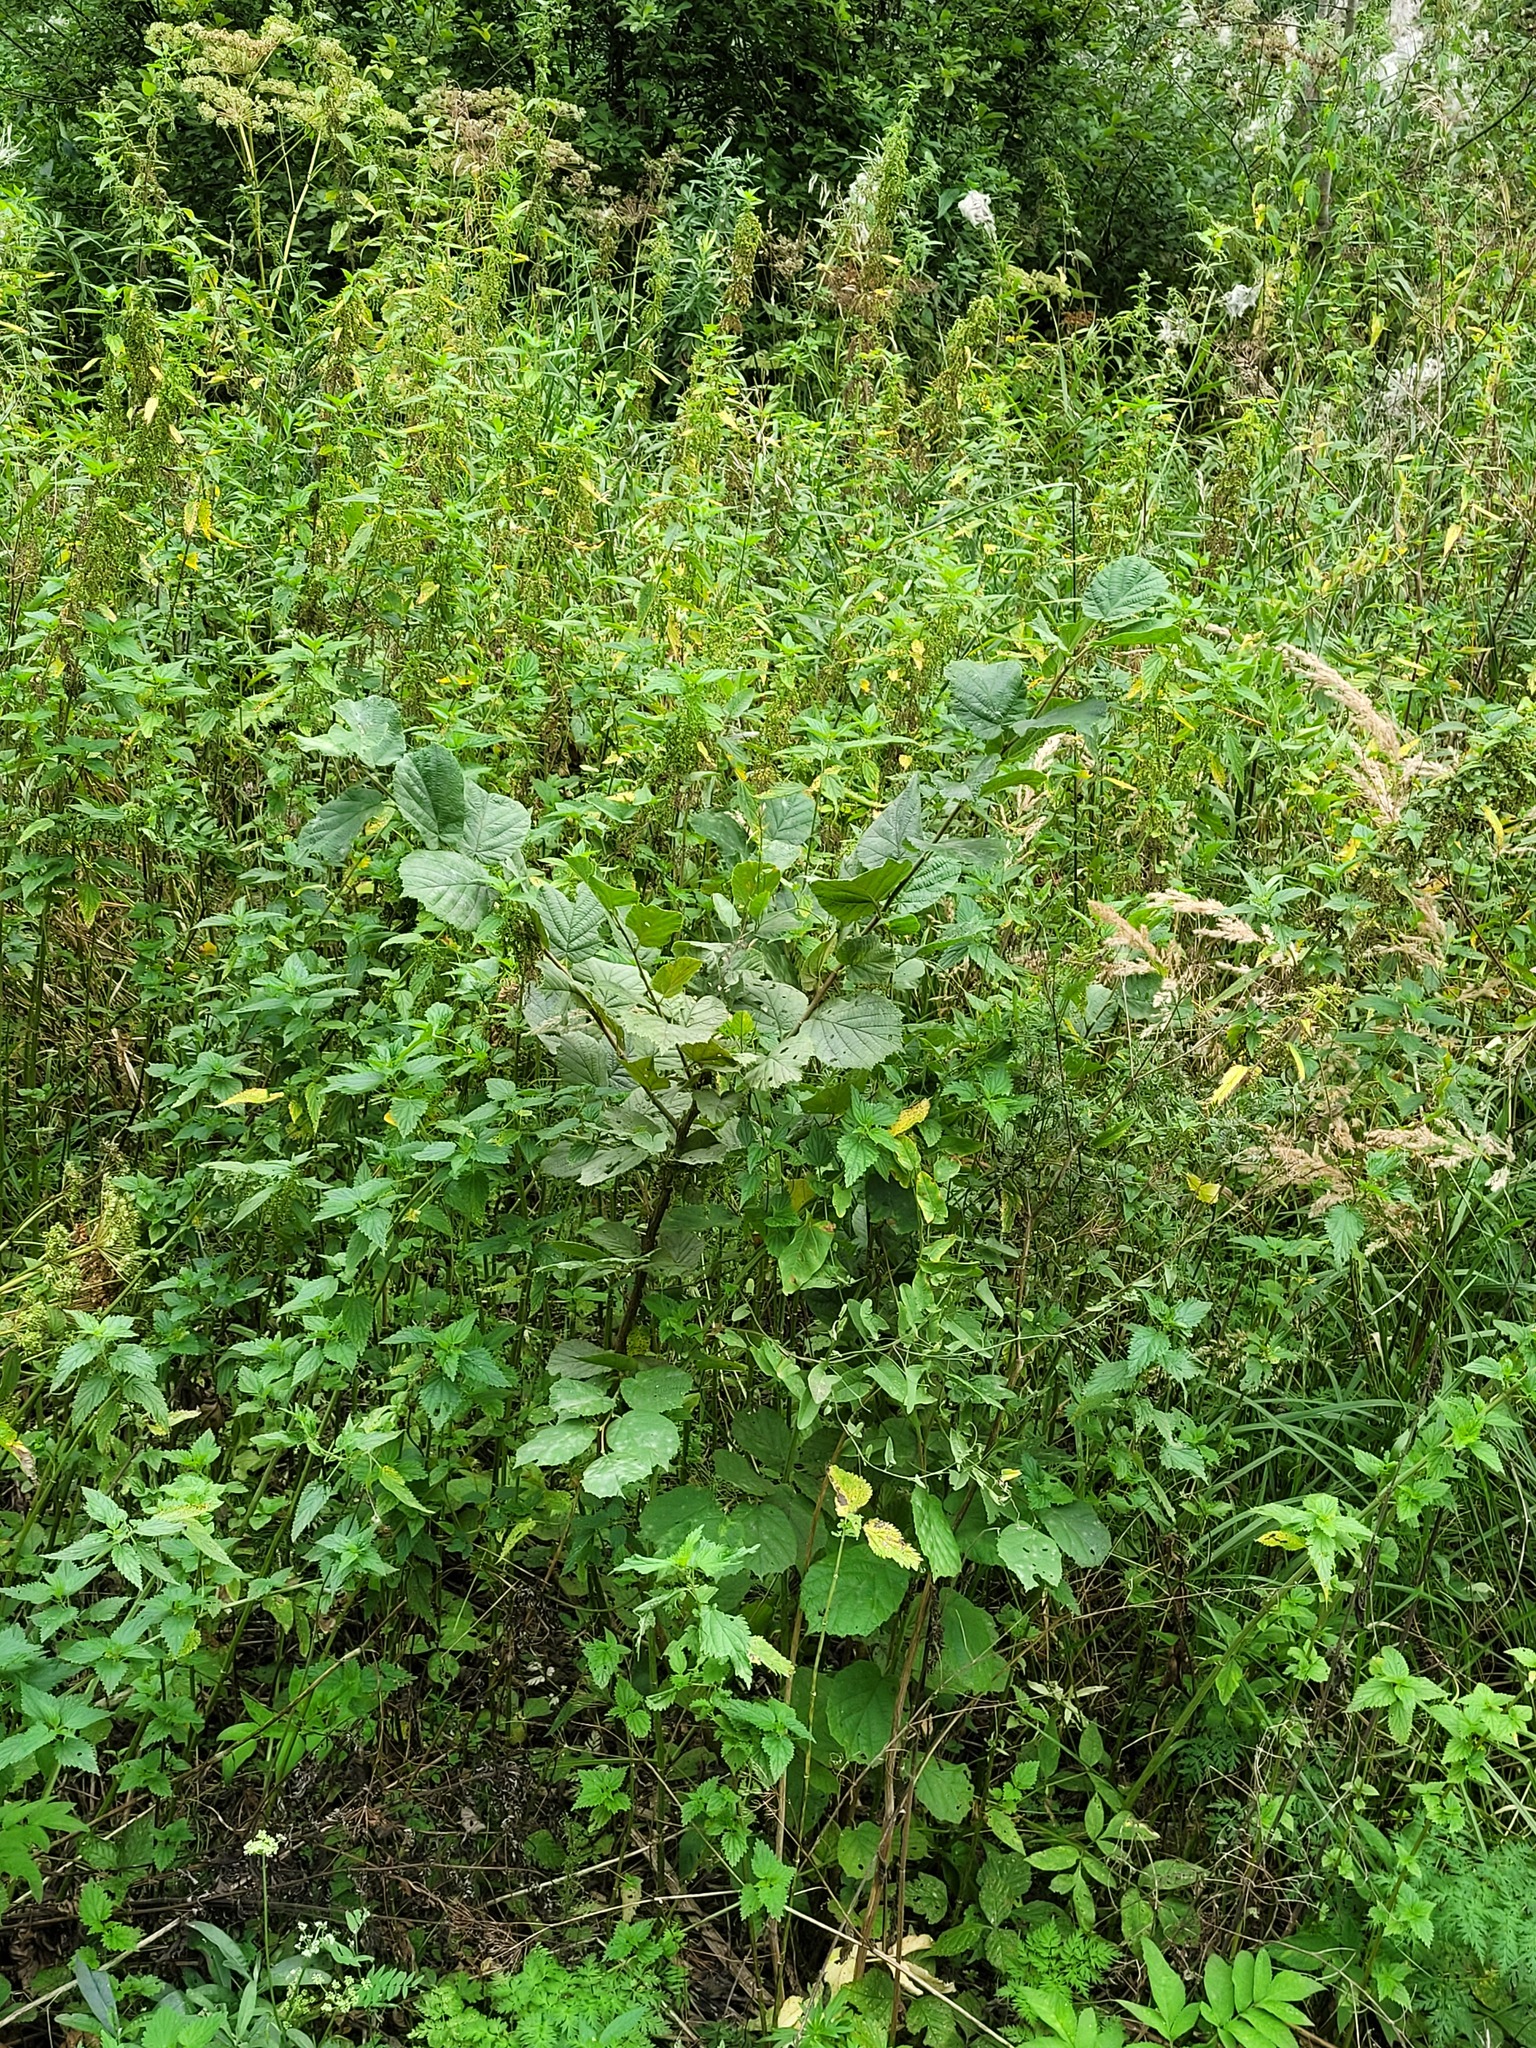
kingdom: Plantae
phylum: Tracheophyta
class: Magnoliopsida
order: Fagales
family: Betulaceae
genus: Corylus
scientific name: Corylus avellana
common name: European hazel
